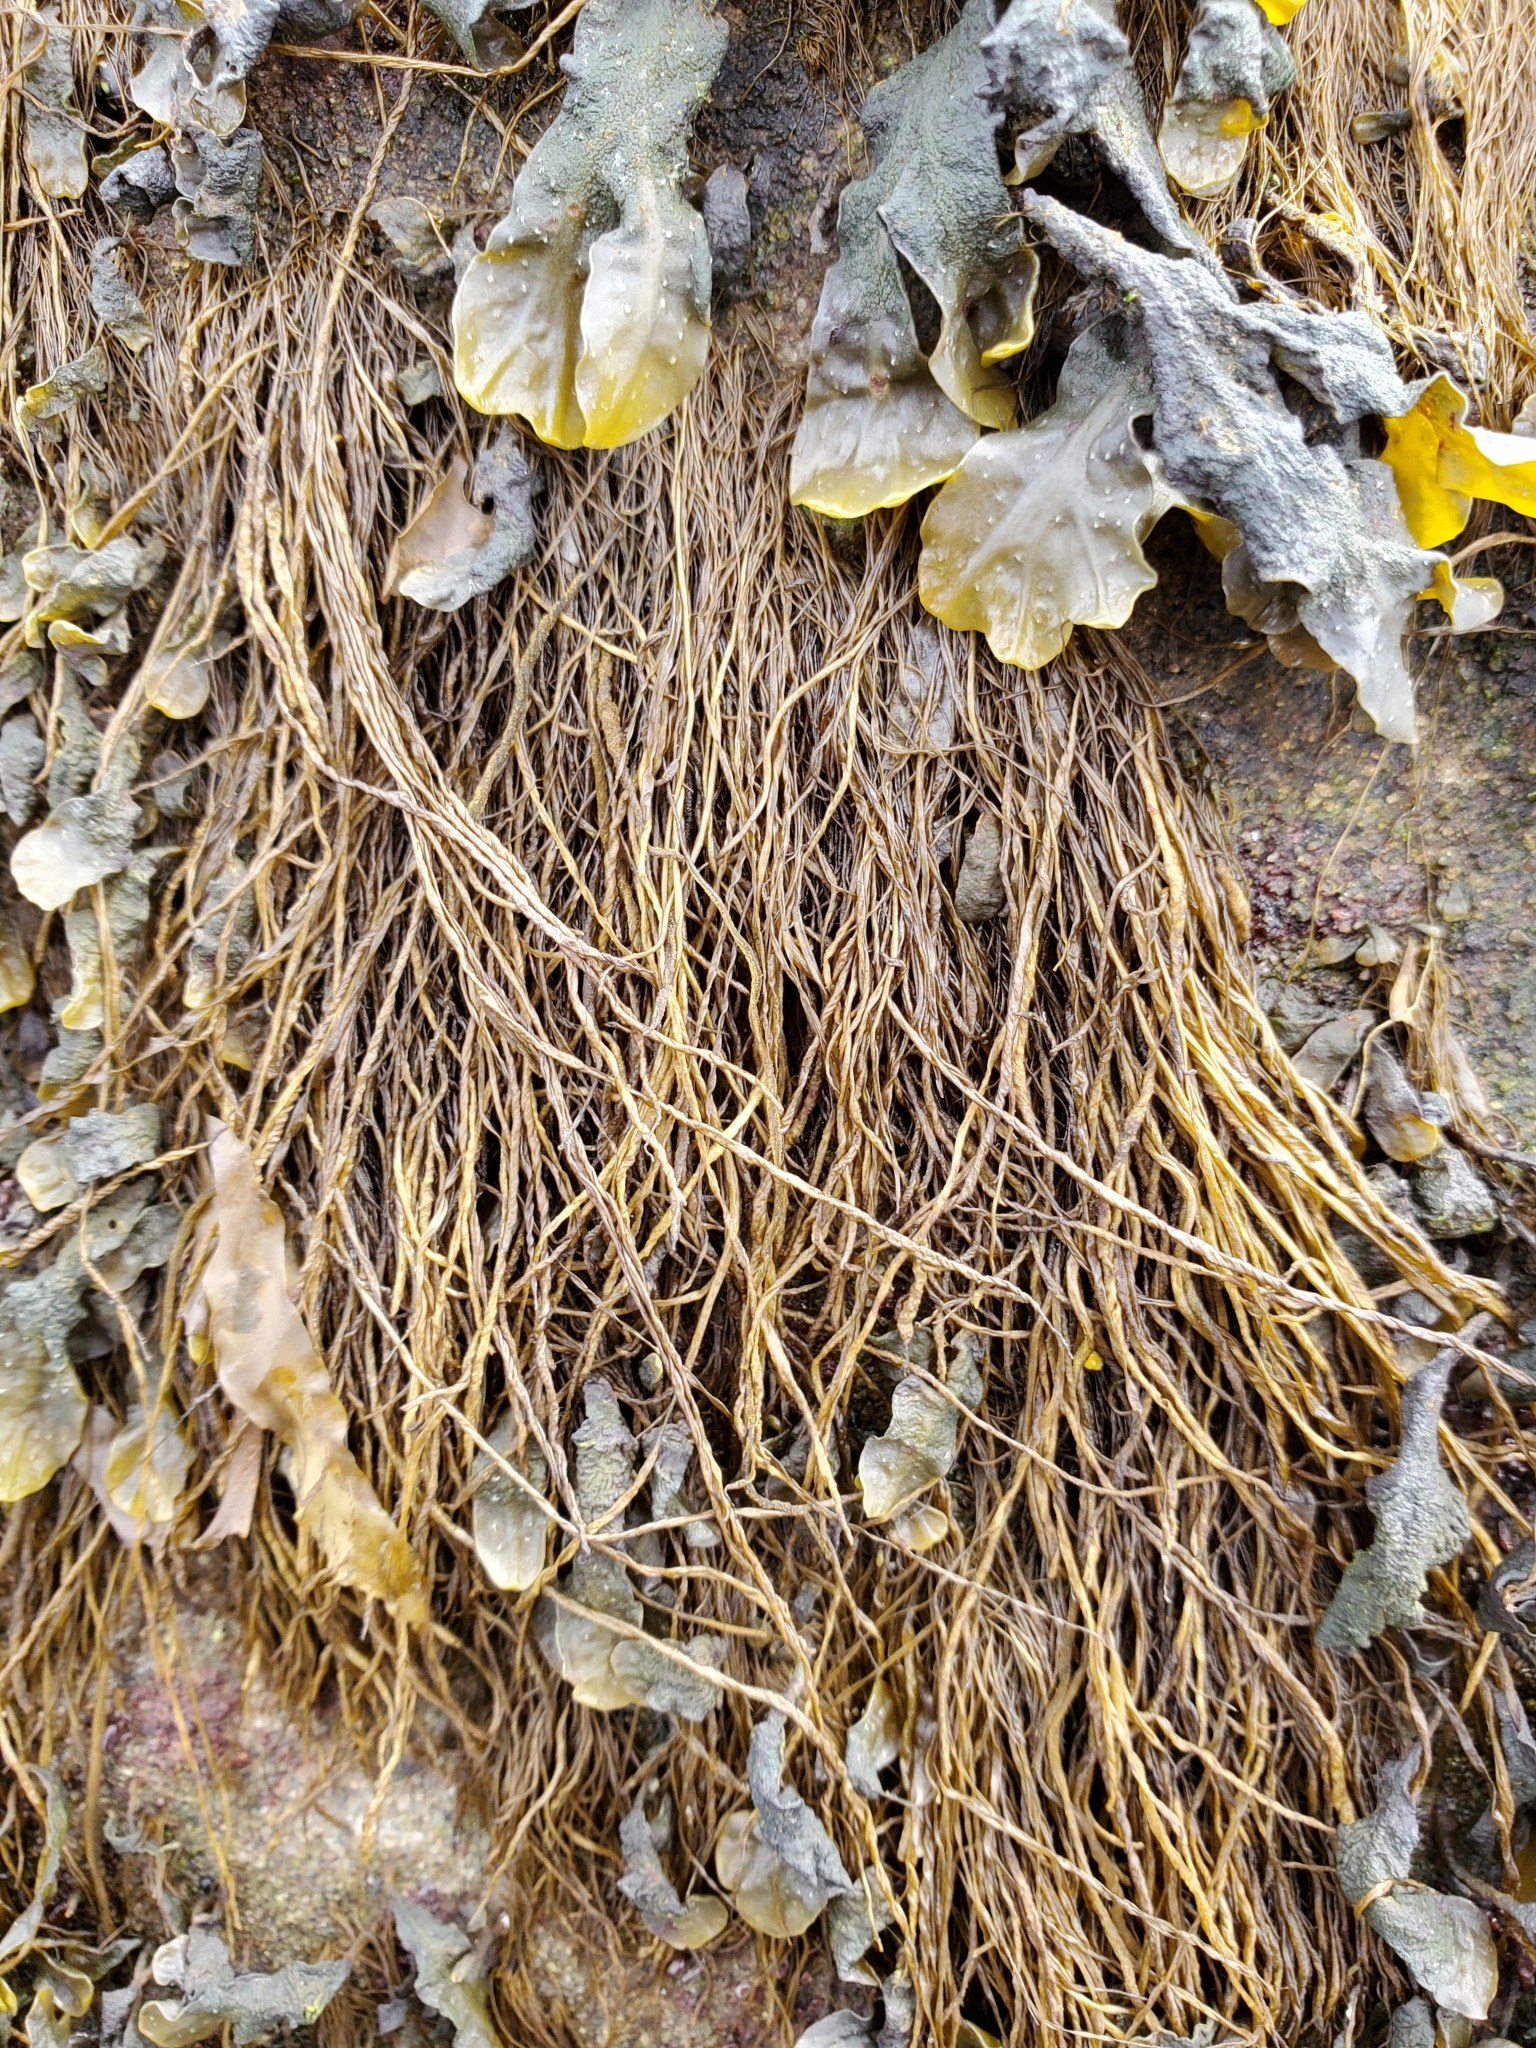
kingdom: Chromista
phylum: Ochrophyta
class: Phaeophyceae
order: Ectocarpales
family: Chordariaceae
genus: Melanosiphon
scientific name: Melanosiphon intestinalis
